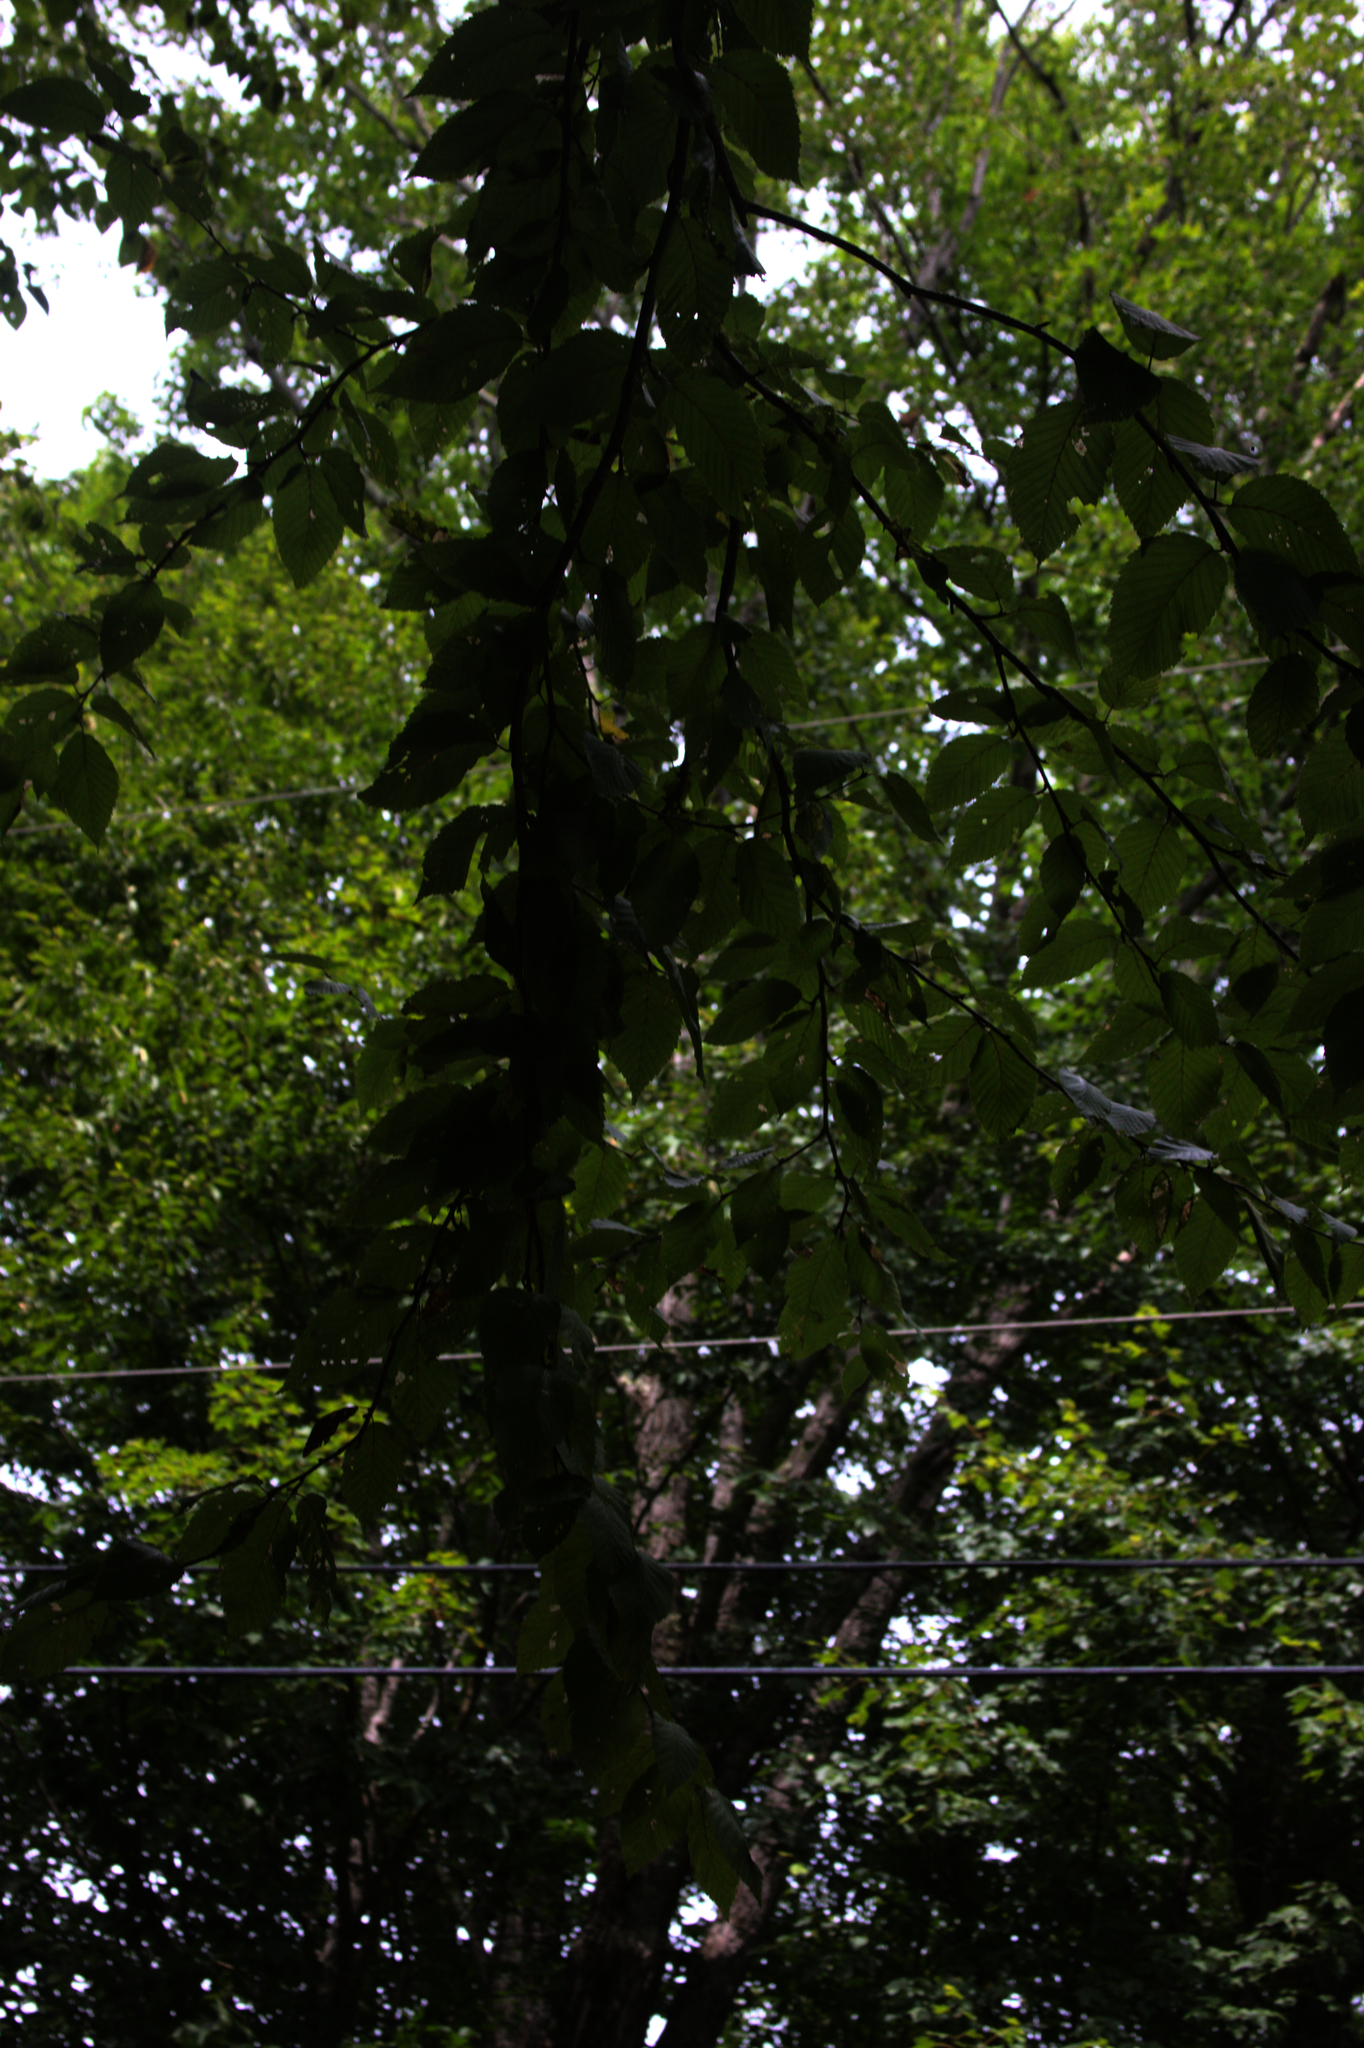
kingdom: Plantae
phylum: Tracheophyta
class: Magnoliopsida
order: Fagales
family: Betulaceae
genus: Betula
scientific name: Betula alleghaniensis
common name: Yellow birch
